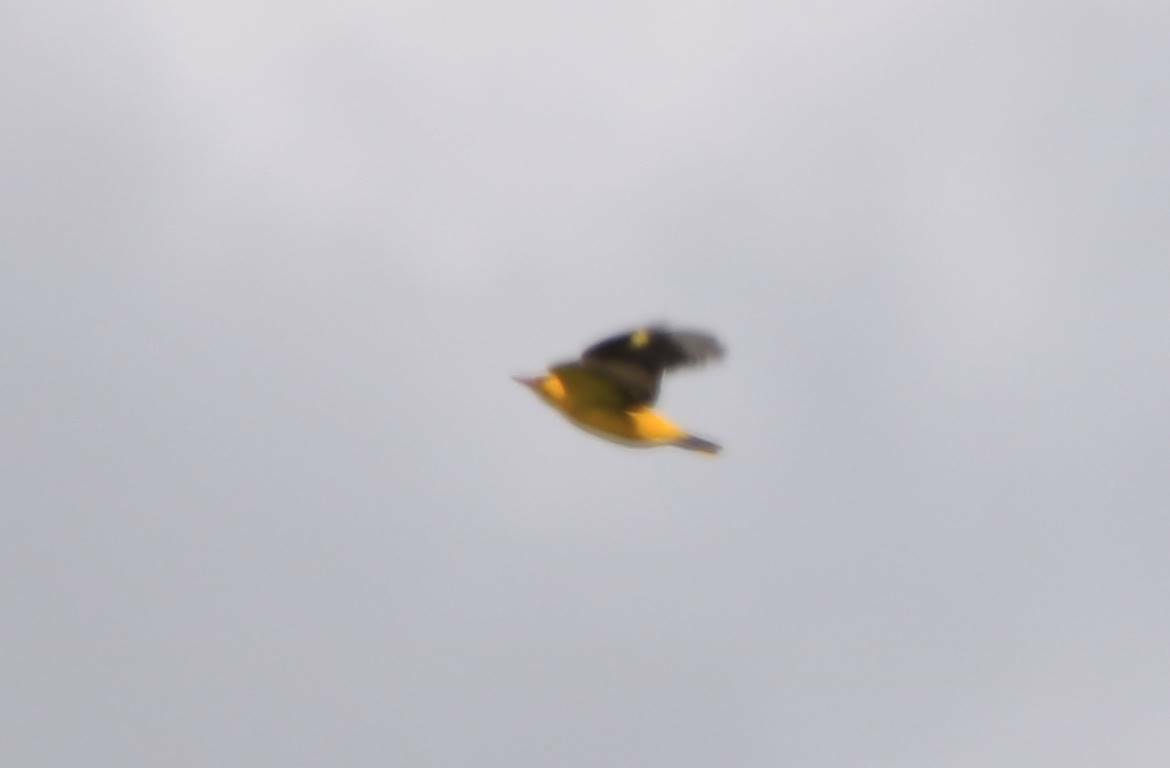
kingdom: Animalia
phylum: Chordata
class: Aves
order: Passeriformes
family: Oriolidae
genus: Oriolus
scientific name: Oriolus oriolus
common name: Eurasian golden oriole
